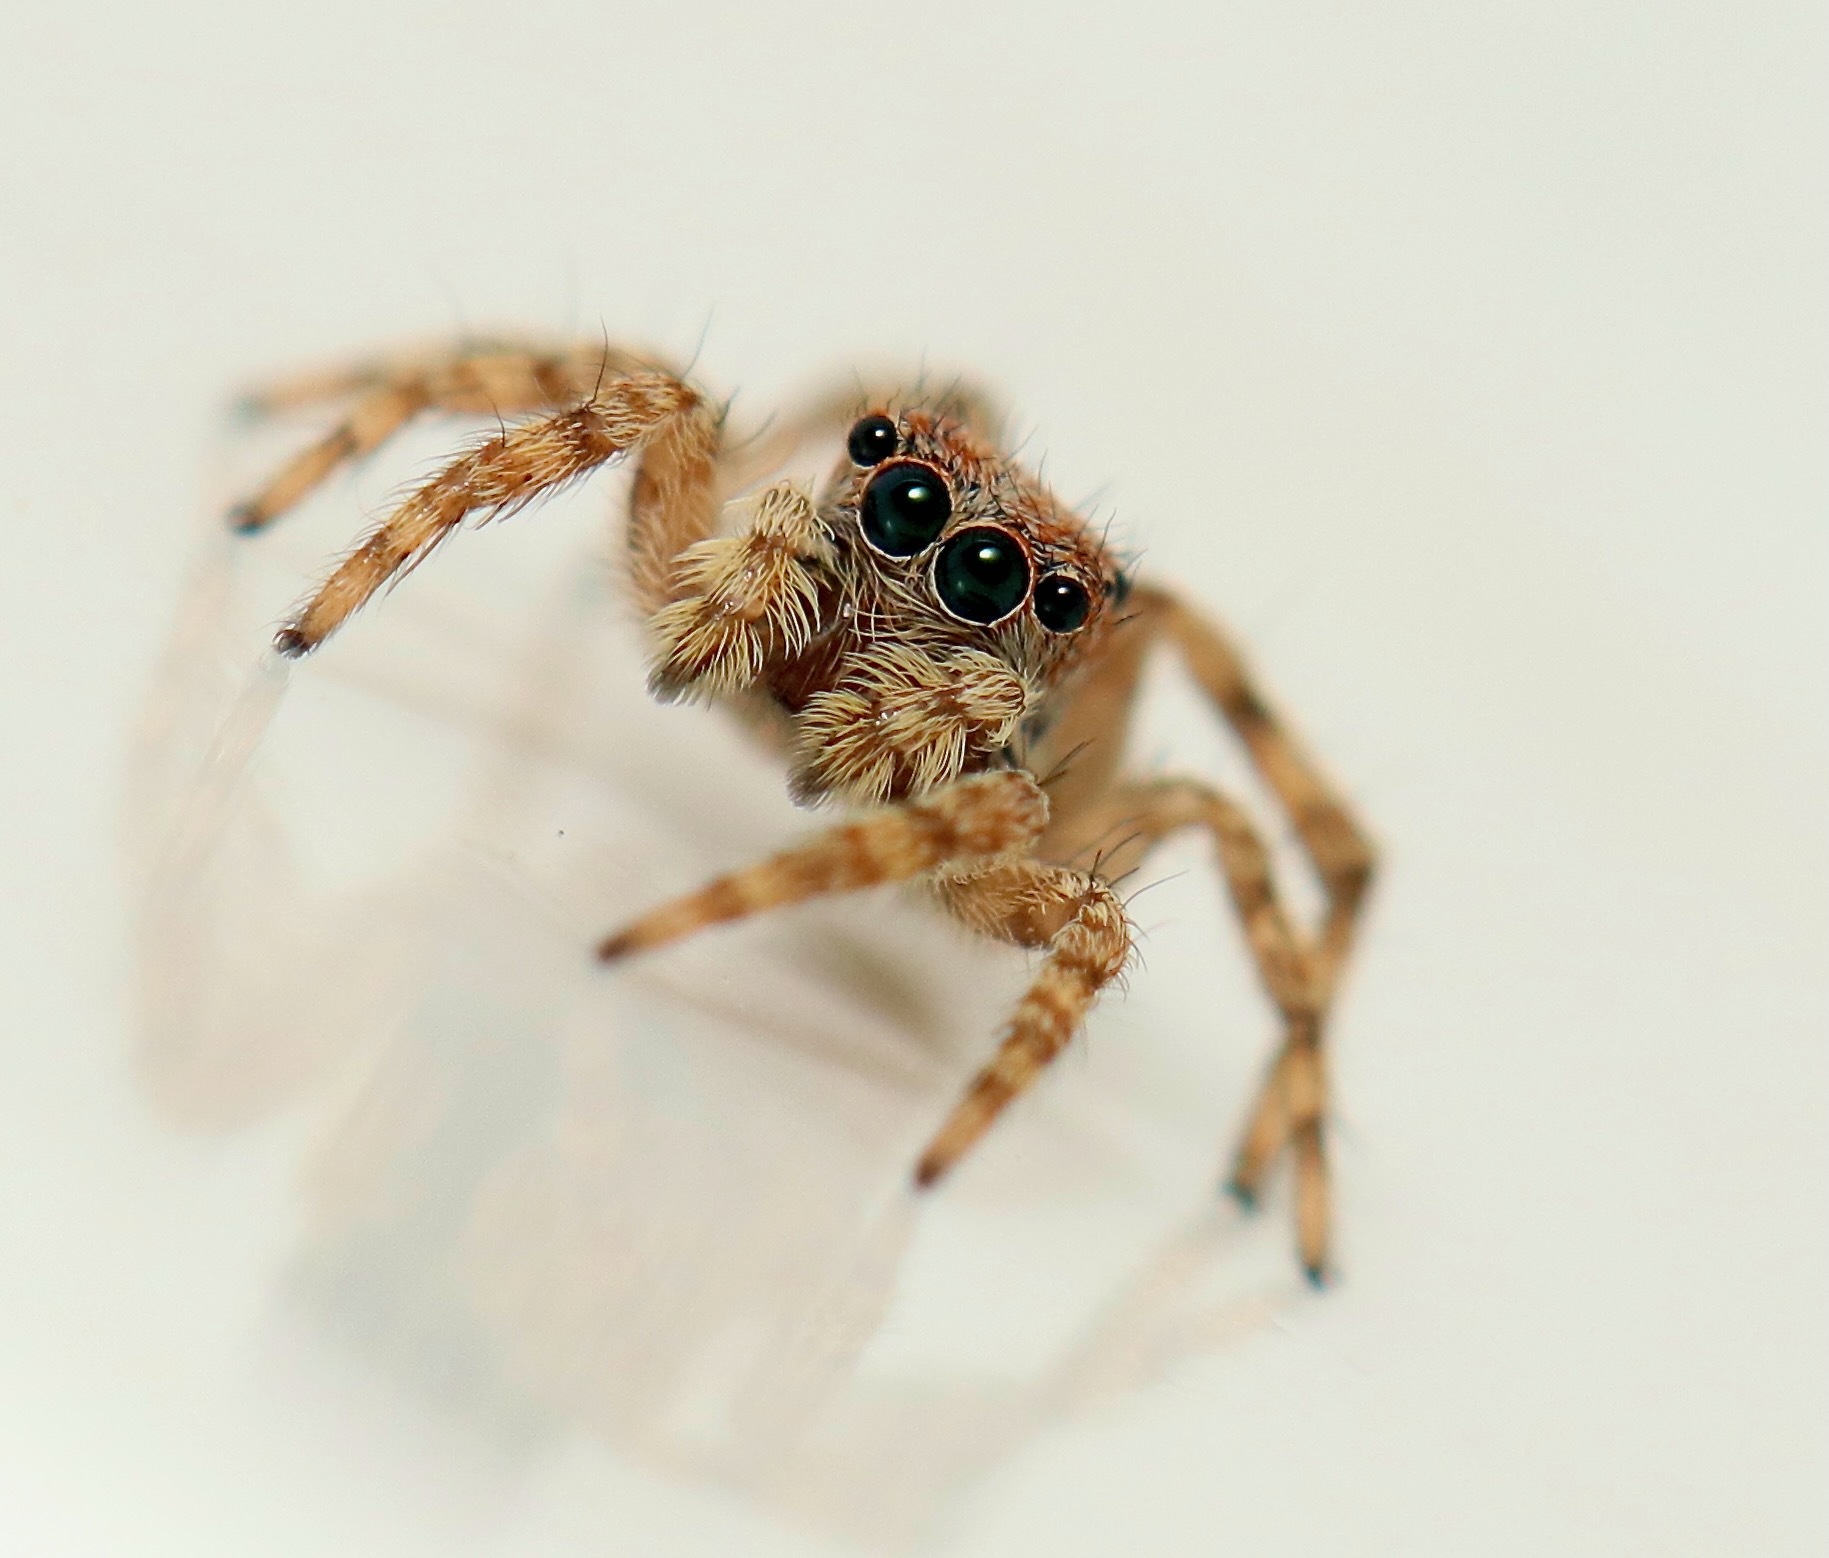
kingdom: Animalia
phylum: Arthropoda
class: Arachnida
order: Araneae
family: Salticidae
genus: Attulus
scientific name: Attulus fasciger
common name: Asiatic wall jumping spider
